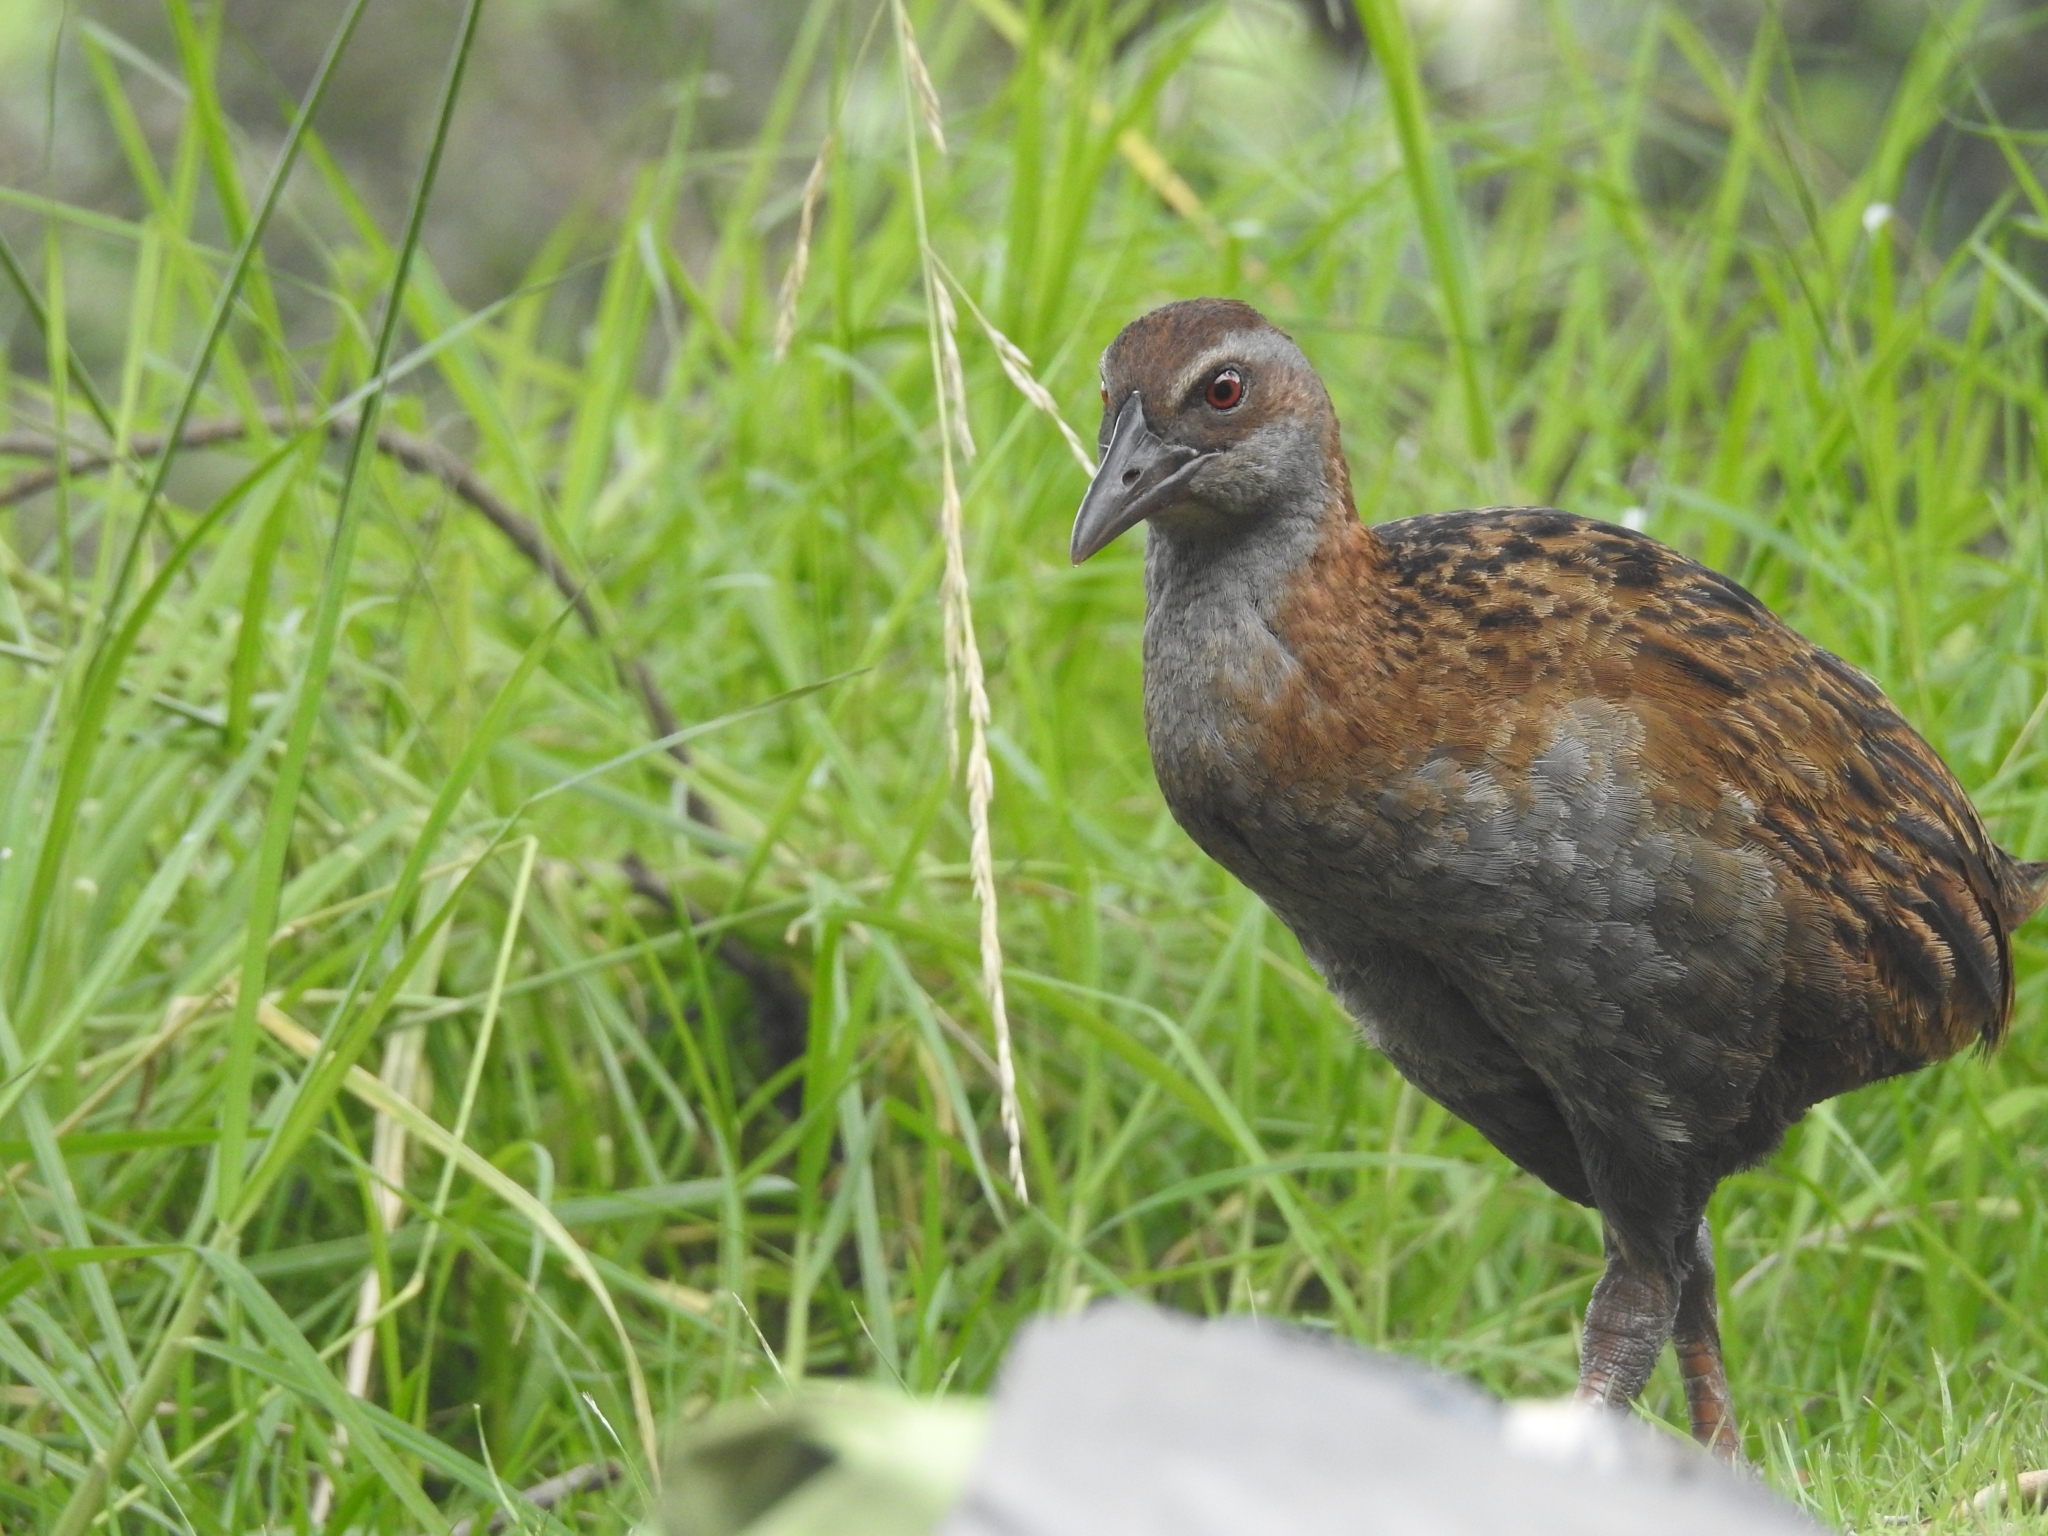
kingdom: Animalia
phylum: Chordata
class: Aves
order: Gruiformes
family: Rallidae
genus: Gallirallus
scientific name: Gallirallus australis
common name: Weka
